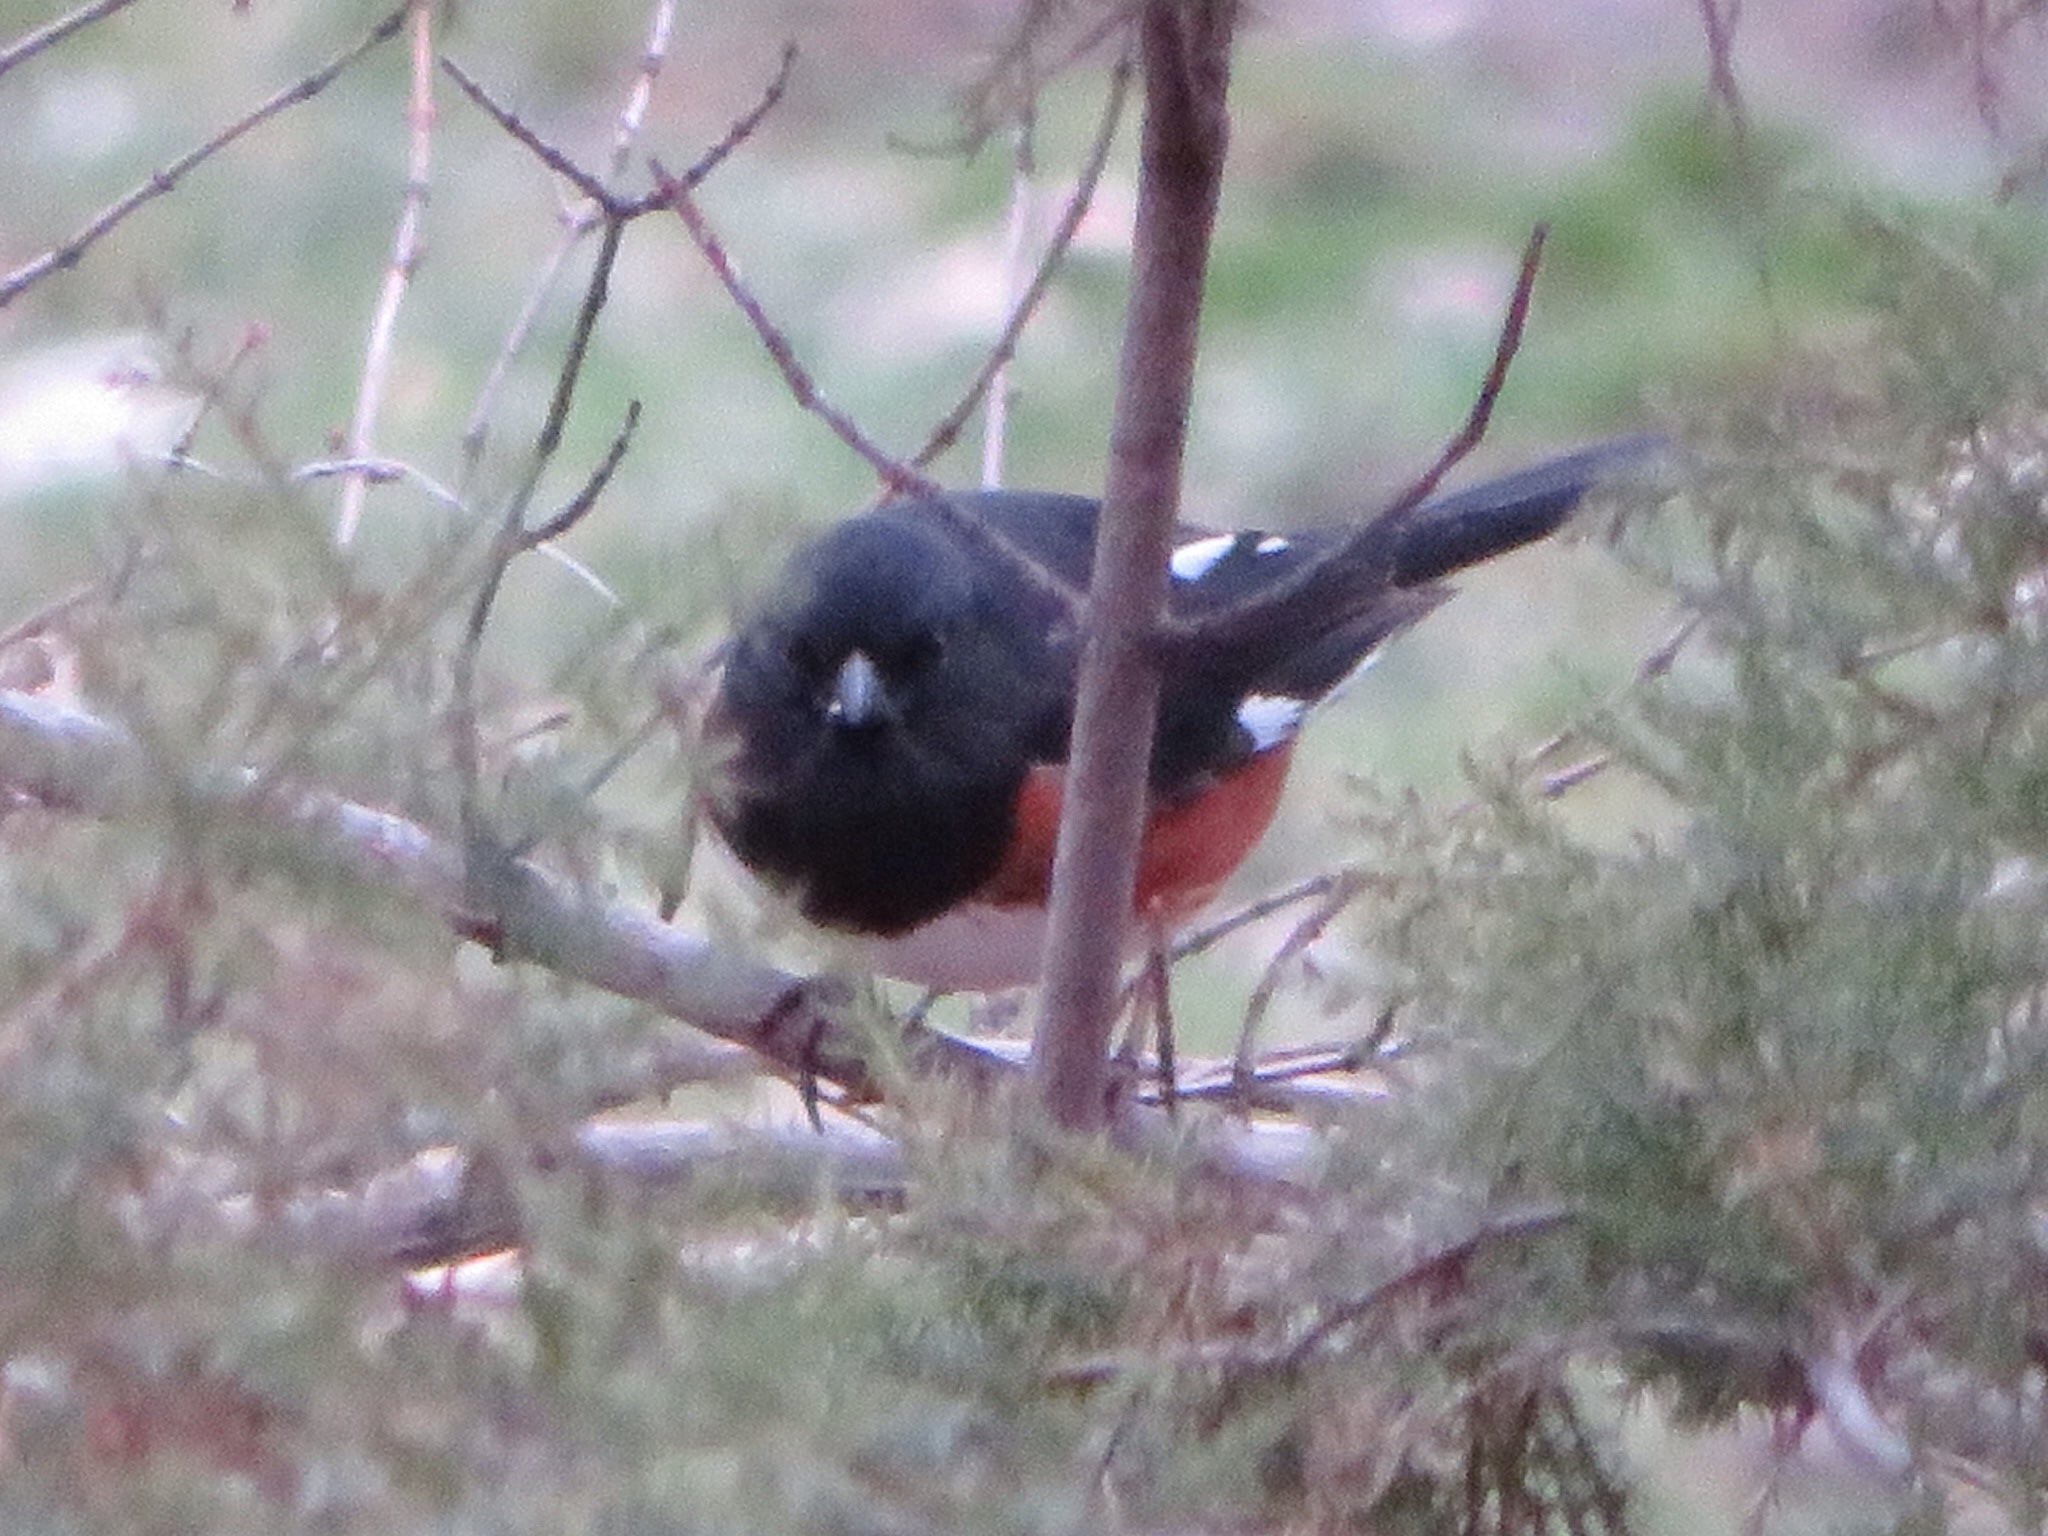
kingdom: Animalia
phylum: Chordata
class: Aves
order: Passeriformes
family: Passerellidae
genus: Pipilo
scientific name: Pipilo erythrophthalmus
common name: Eastern towhee
